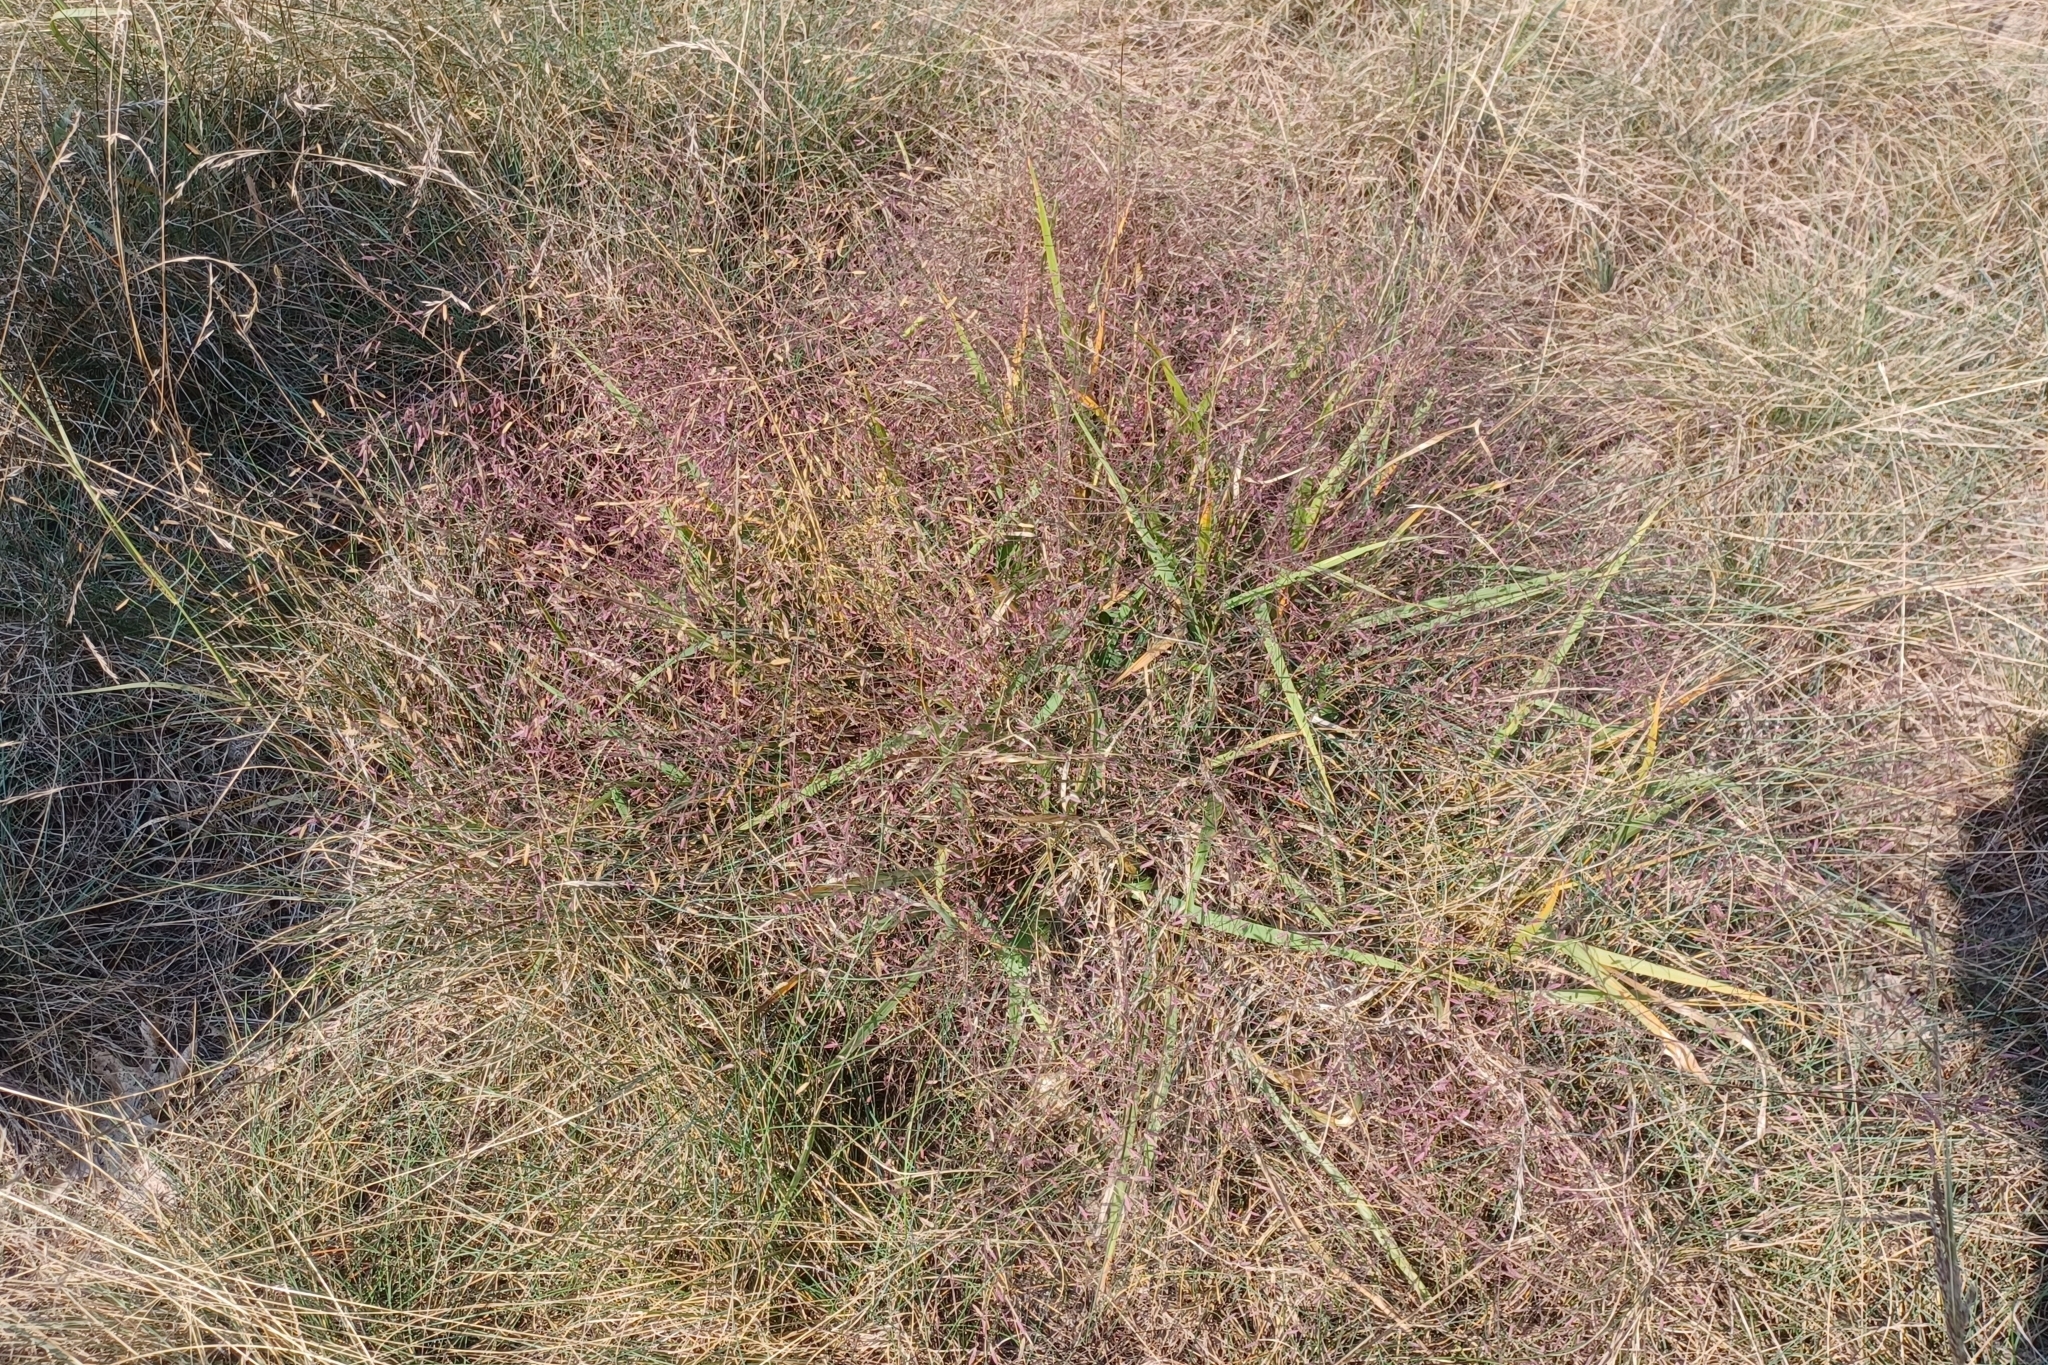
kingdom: Plantae
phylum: Tracheophyta
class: Liliopsida
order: Poales
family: Poaceae
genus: Eragrostis
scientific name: Eragrostis spectabilis
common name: Petticoat-climber
